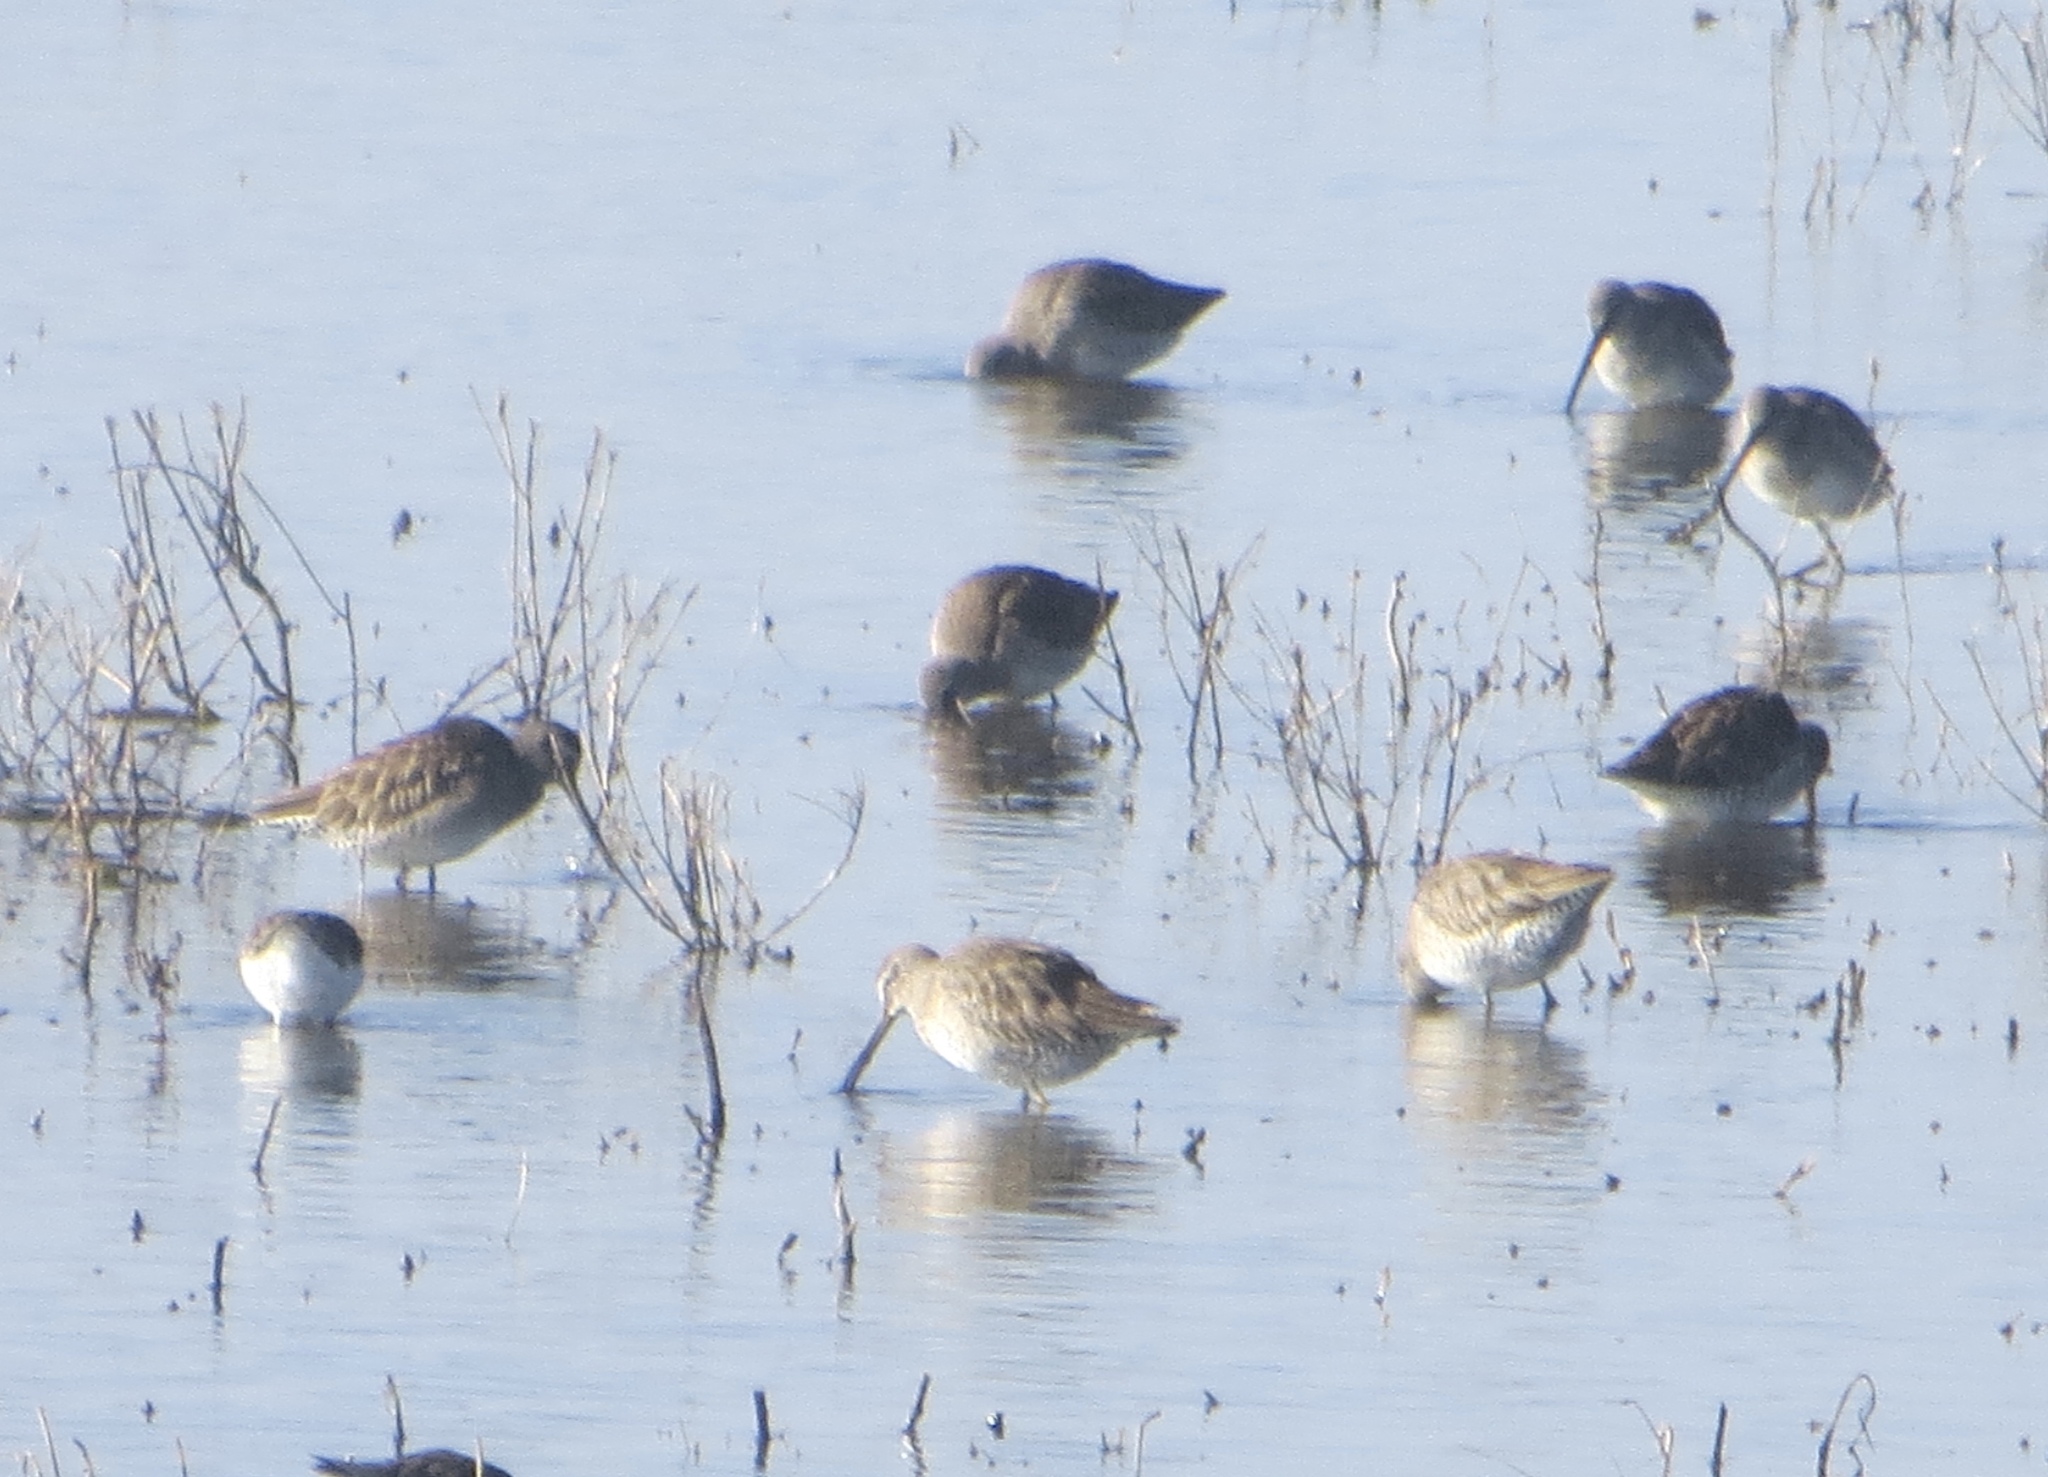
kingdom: Animalia
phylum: Chordata
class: Aves
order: Charadriiformes
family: Scolopacidae
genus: Limnodromus
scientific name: Limnodromus scolopaceus
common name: Long-billed dowitcher
